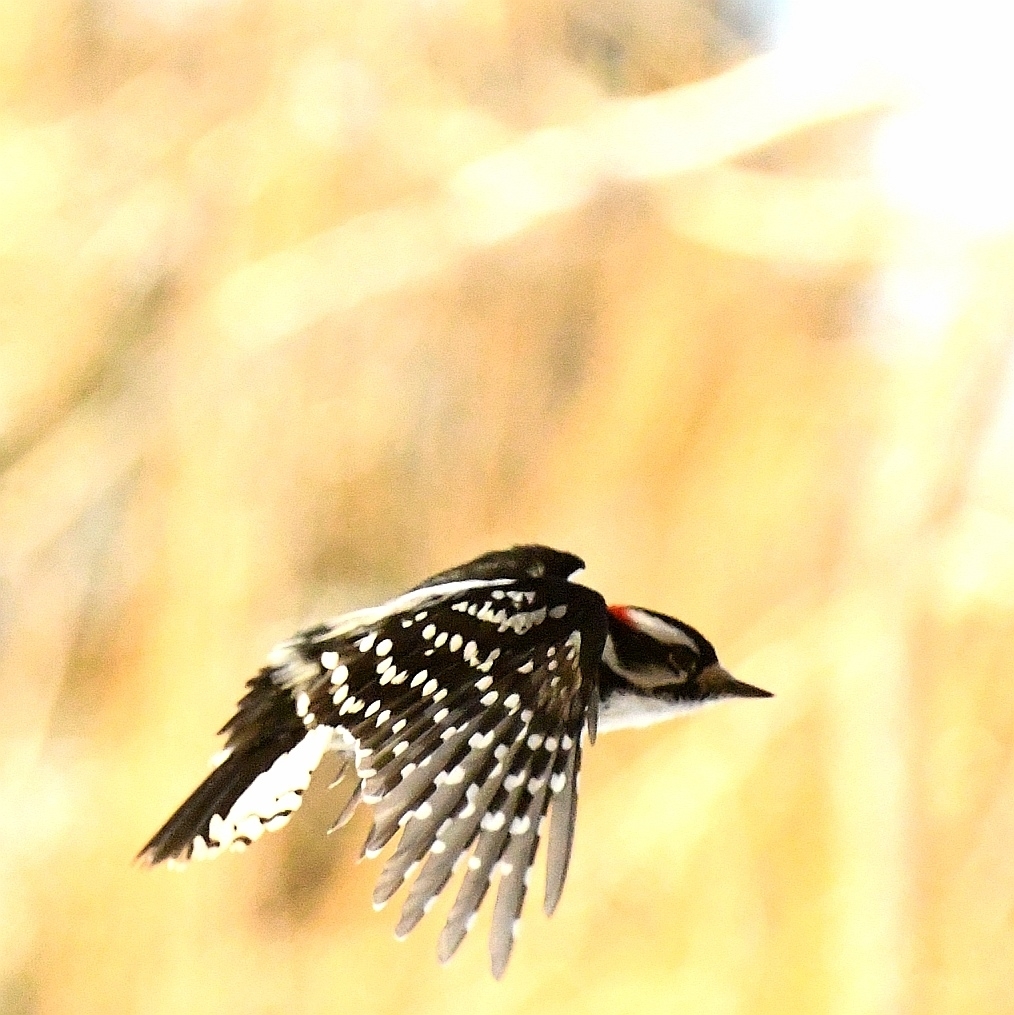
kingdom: Animalia
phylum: Chordata
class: Aves
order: Piciformes
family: Picidae
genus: Dryobates
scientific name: Dryobates pubescens
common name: Downy woodpecker
